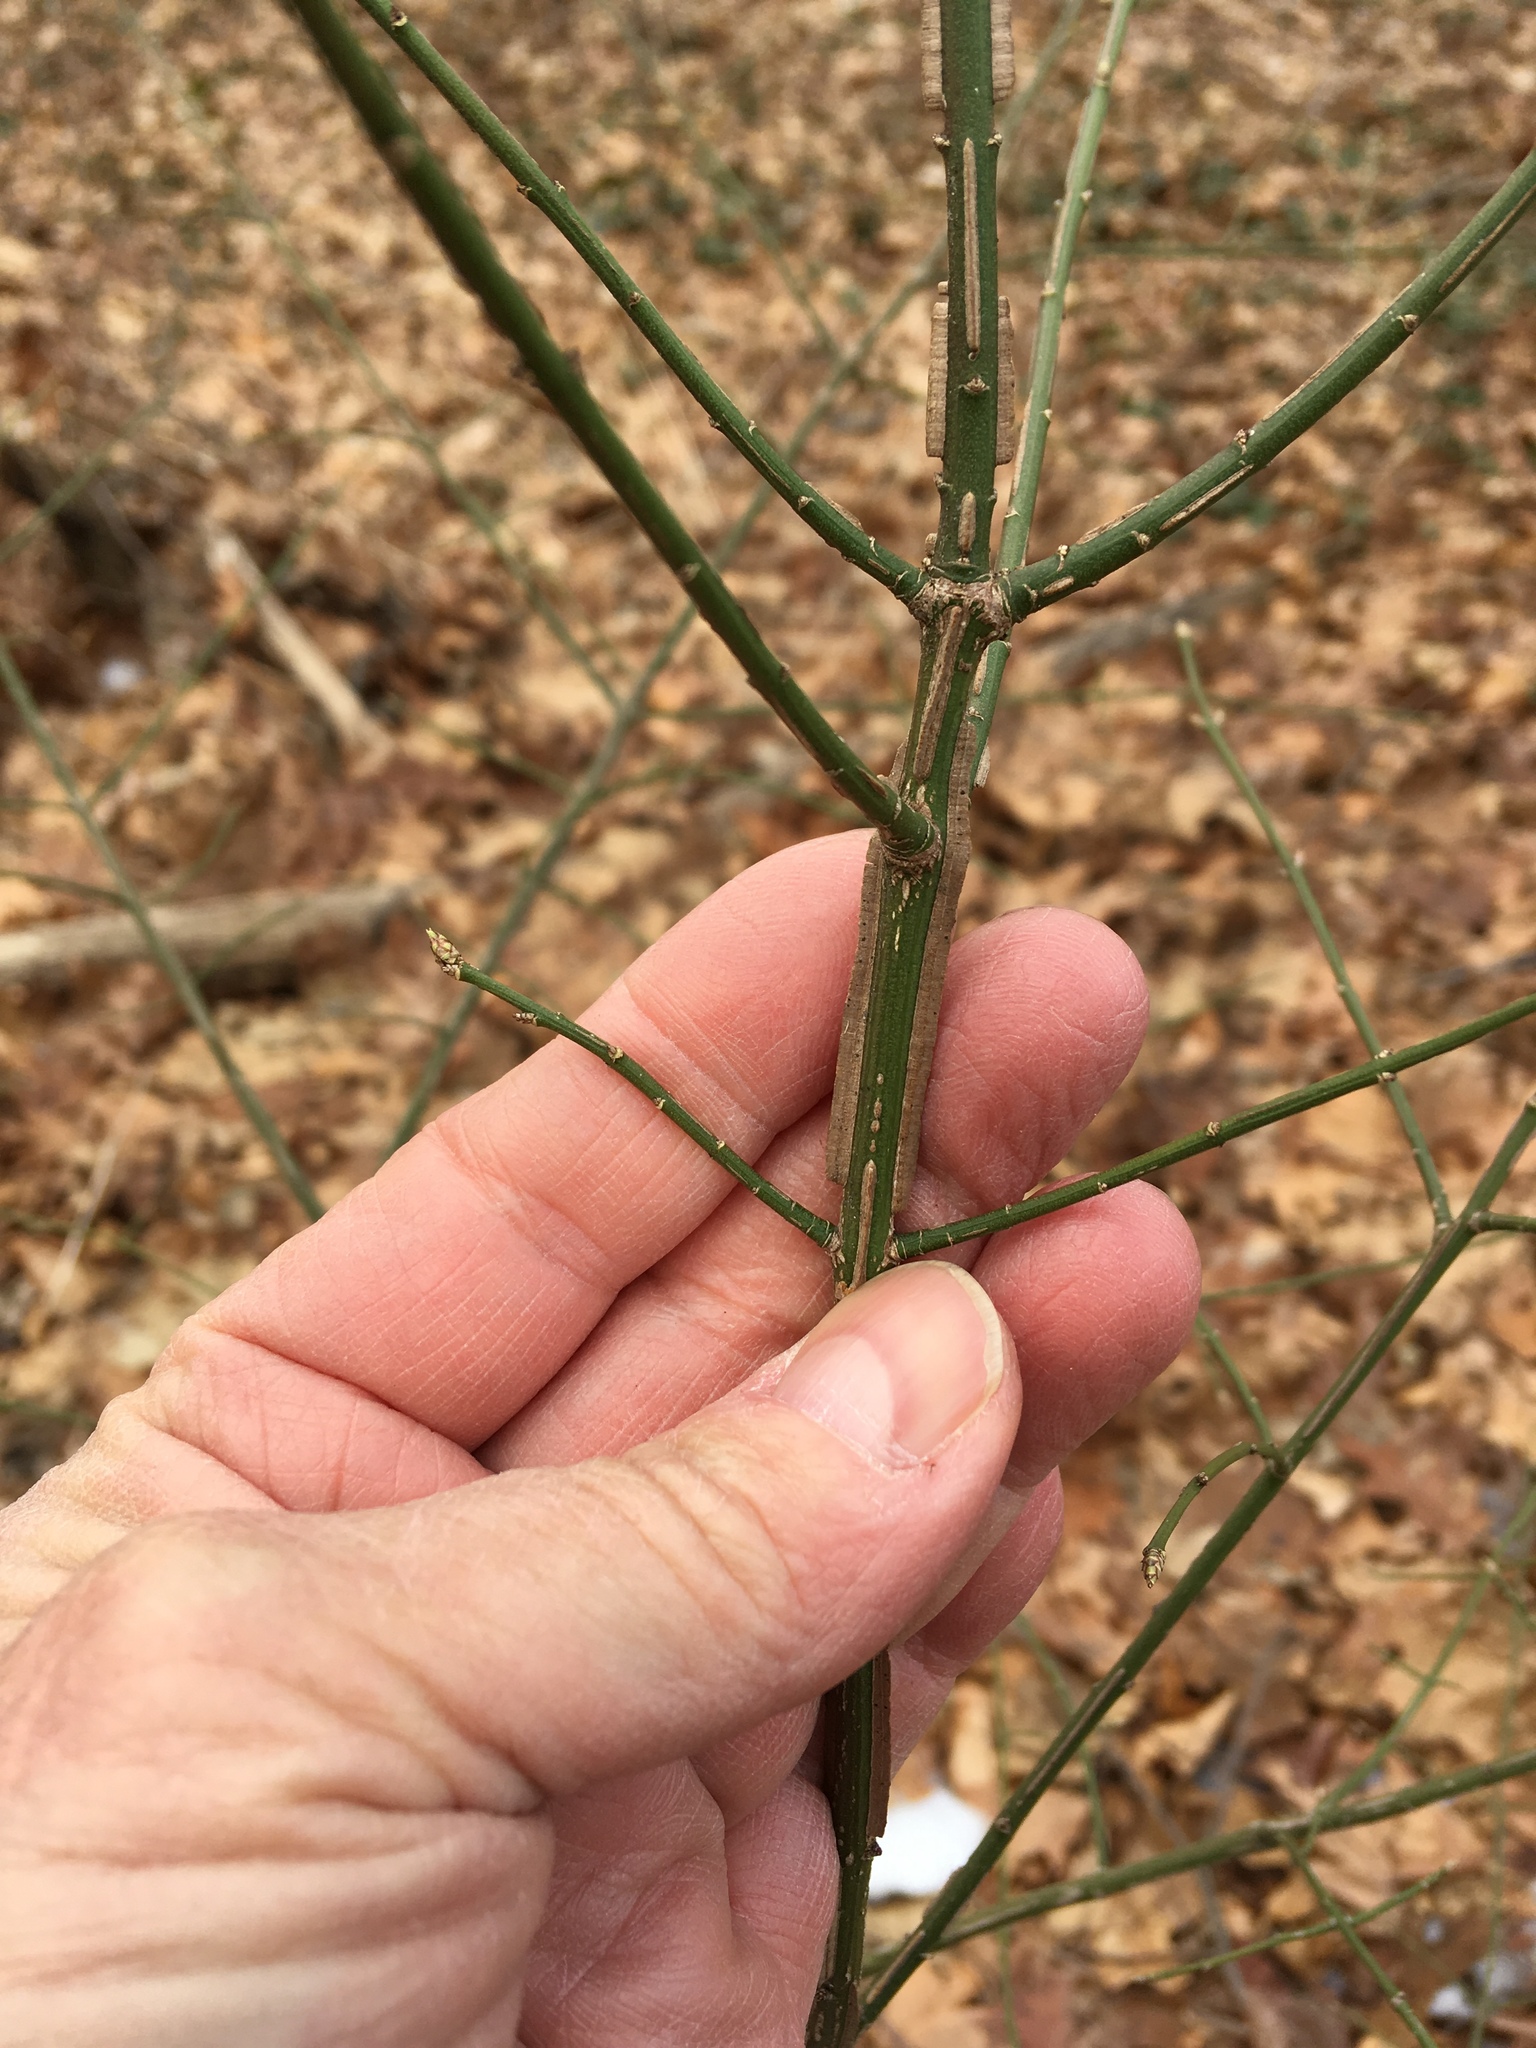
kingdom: Plantae
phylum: Tracheophyta
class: Magnoliopsida
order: Celastrales
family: Celastraceae
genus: Euonymus
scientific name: Euonymus alatus
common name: Winged euonymus
